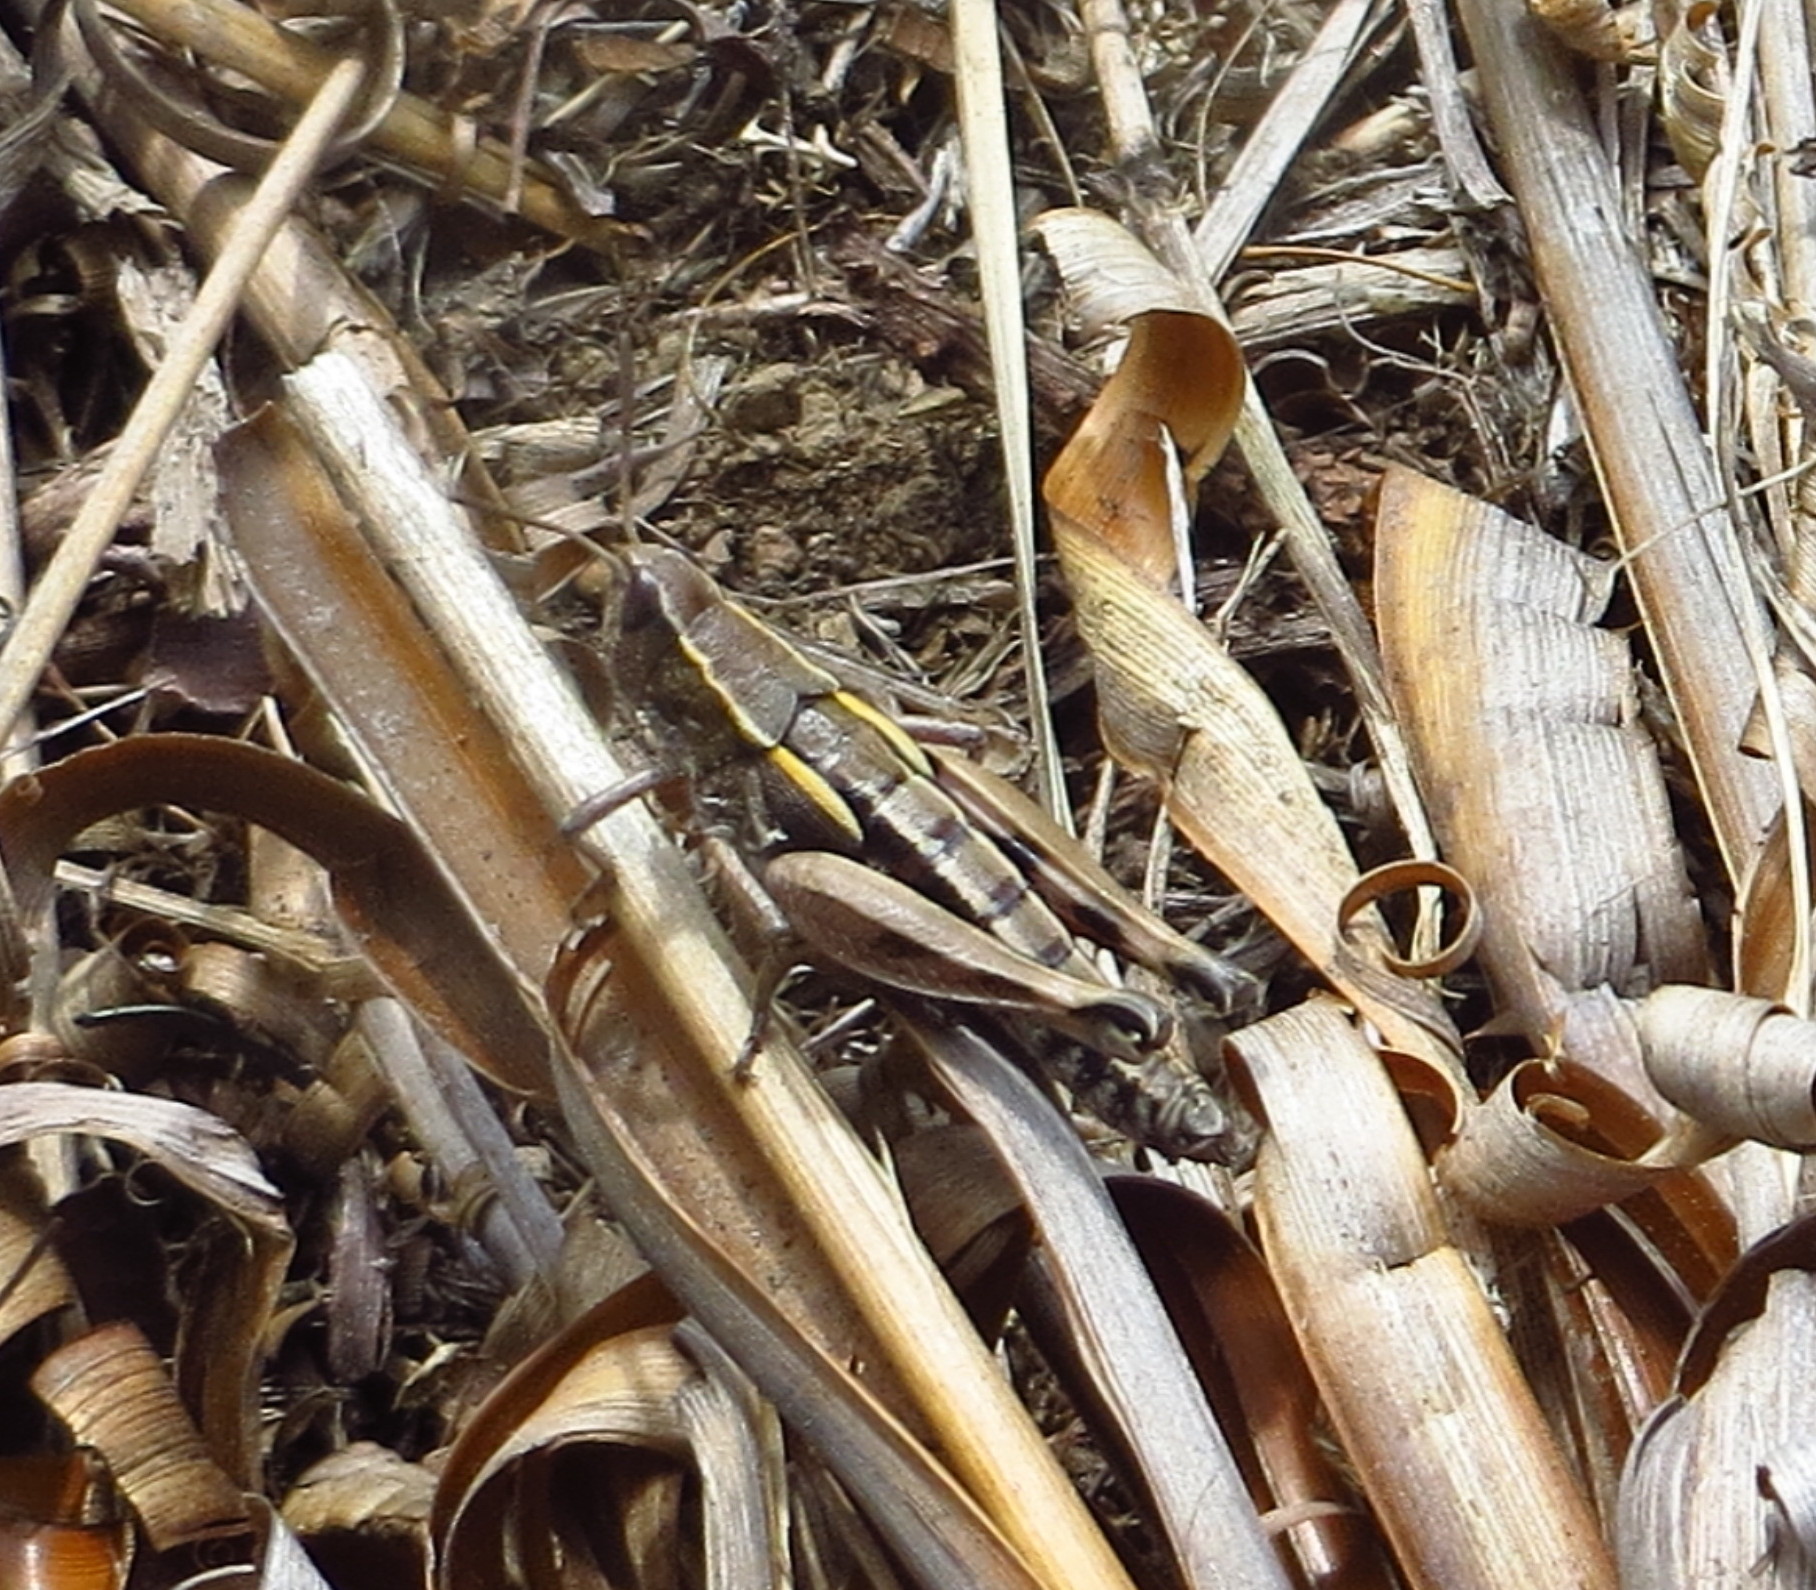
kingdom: Animalia
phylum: Arthropoda
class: Insecta
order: Orthoptera
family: Acrididae
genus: Sigaus
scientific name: Sigaus australis
